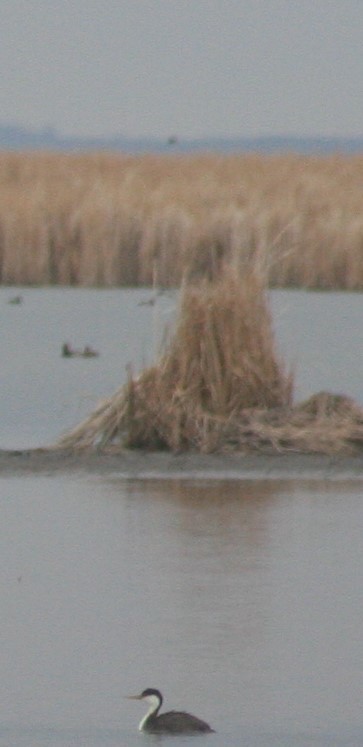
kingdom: Animalia
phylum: Chordata
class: Aves
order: Podicipediformes
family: Podicipedidae
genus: Aechmophorus
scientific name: Aechmophorus occidentalis
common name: Western grebe
